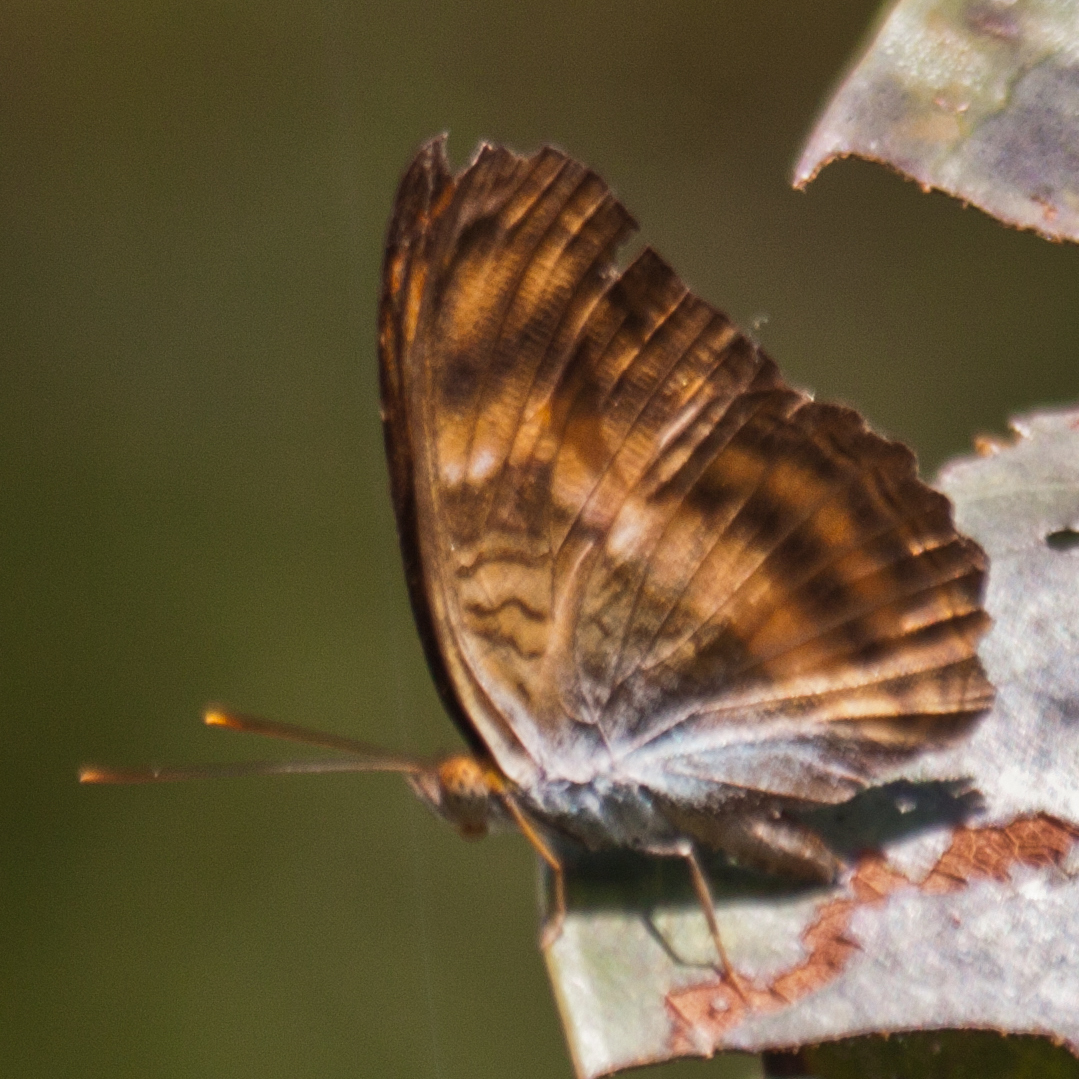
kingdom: Animalia
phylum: Arthropoda
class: Insecta
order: Lepidoptera
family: Nymphalidae
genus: Pandita
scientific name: Pandita sinope
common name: Colonel
